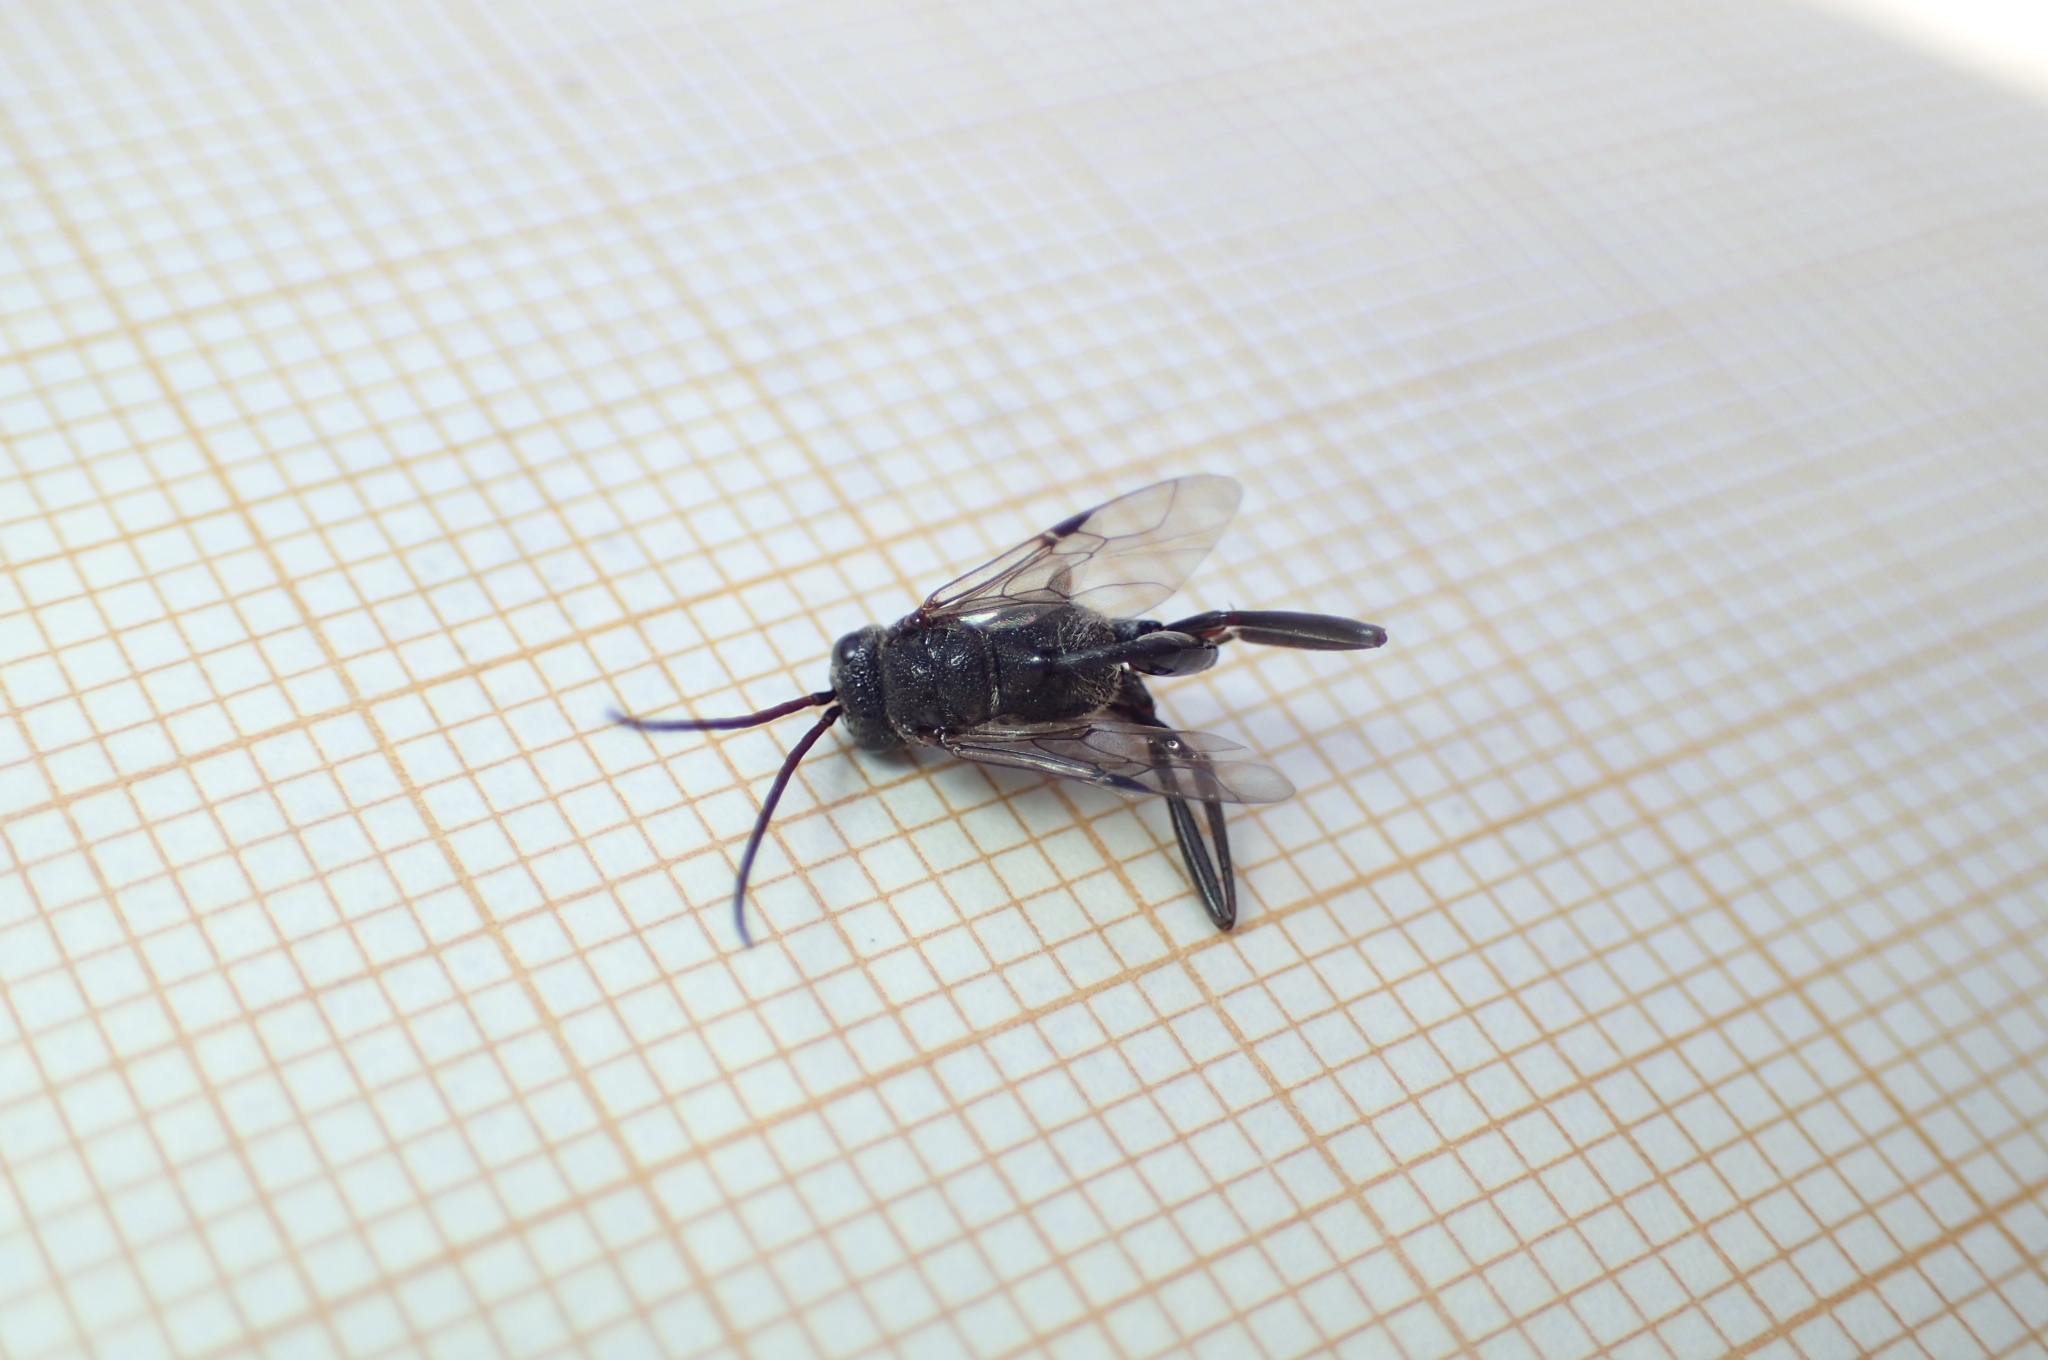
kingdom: Animalia
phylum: Arthropoda
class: Insecta
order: Hymenoptera
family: Evaniidae
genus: Prosevania
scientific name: Prosevania fuscipes
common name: Ensign wasp
